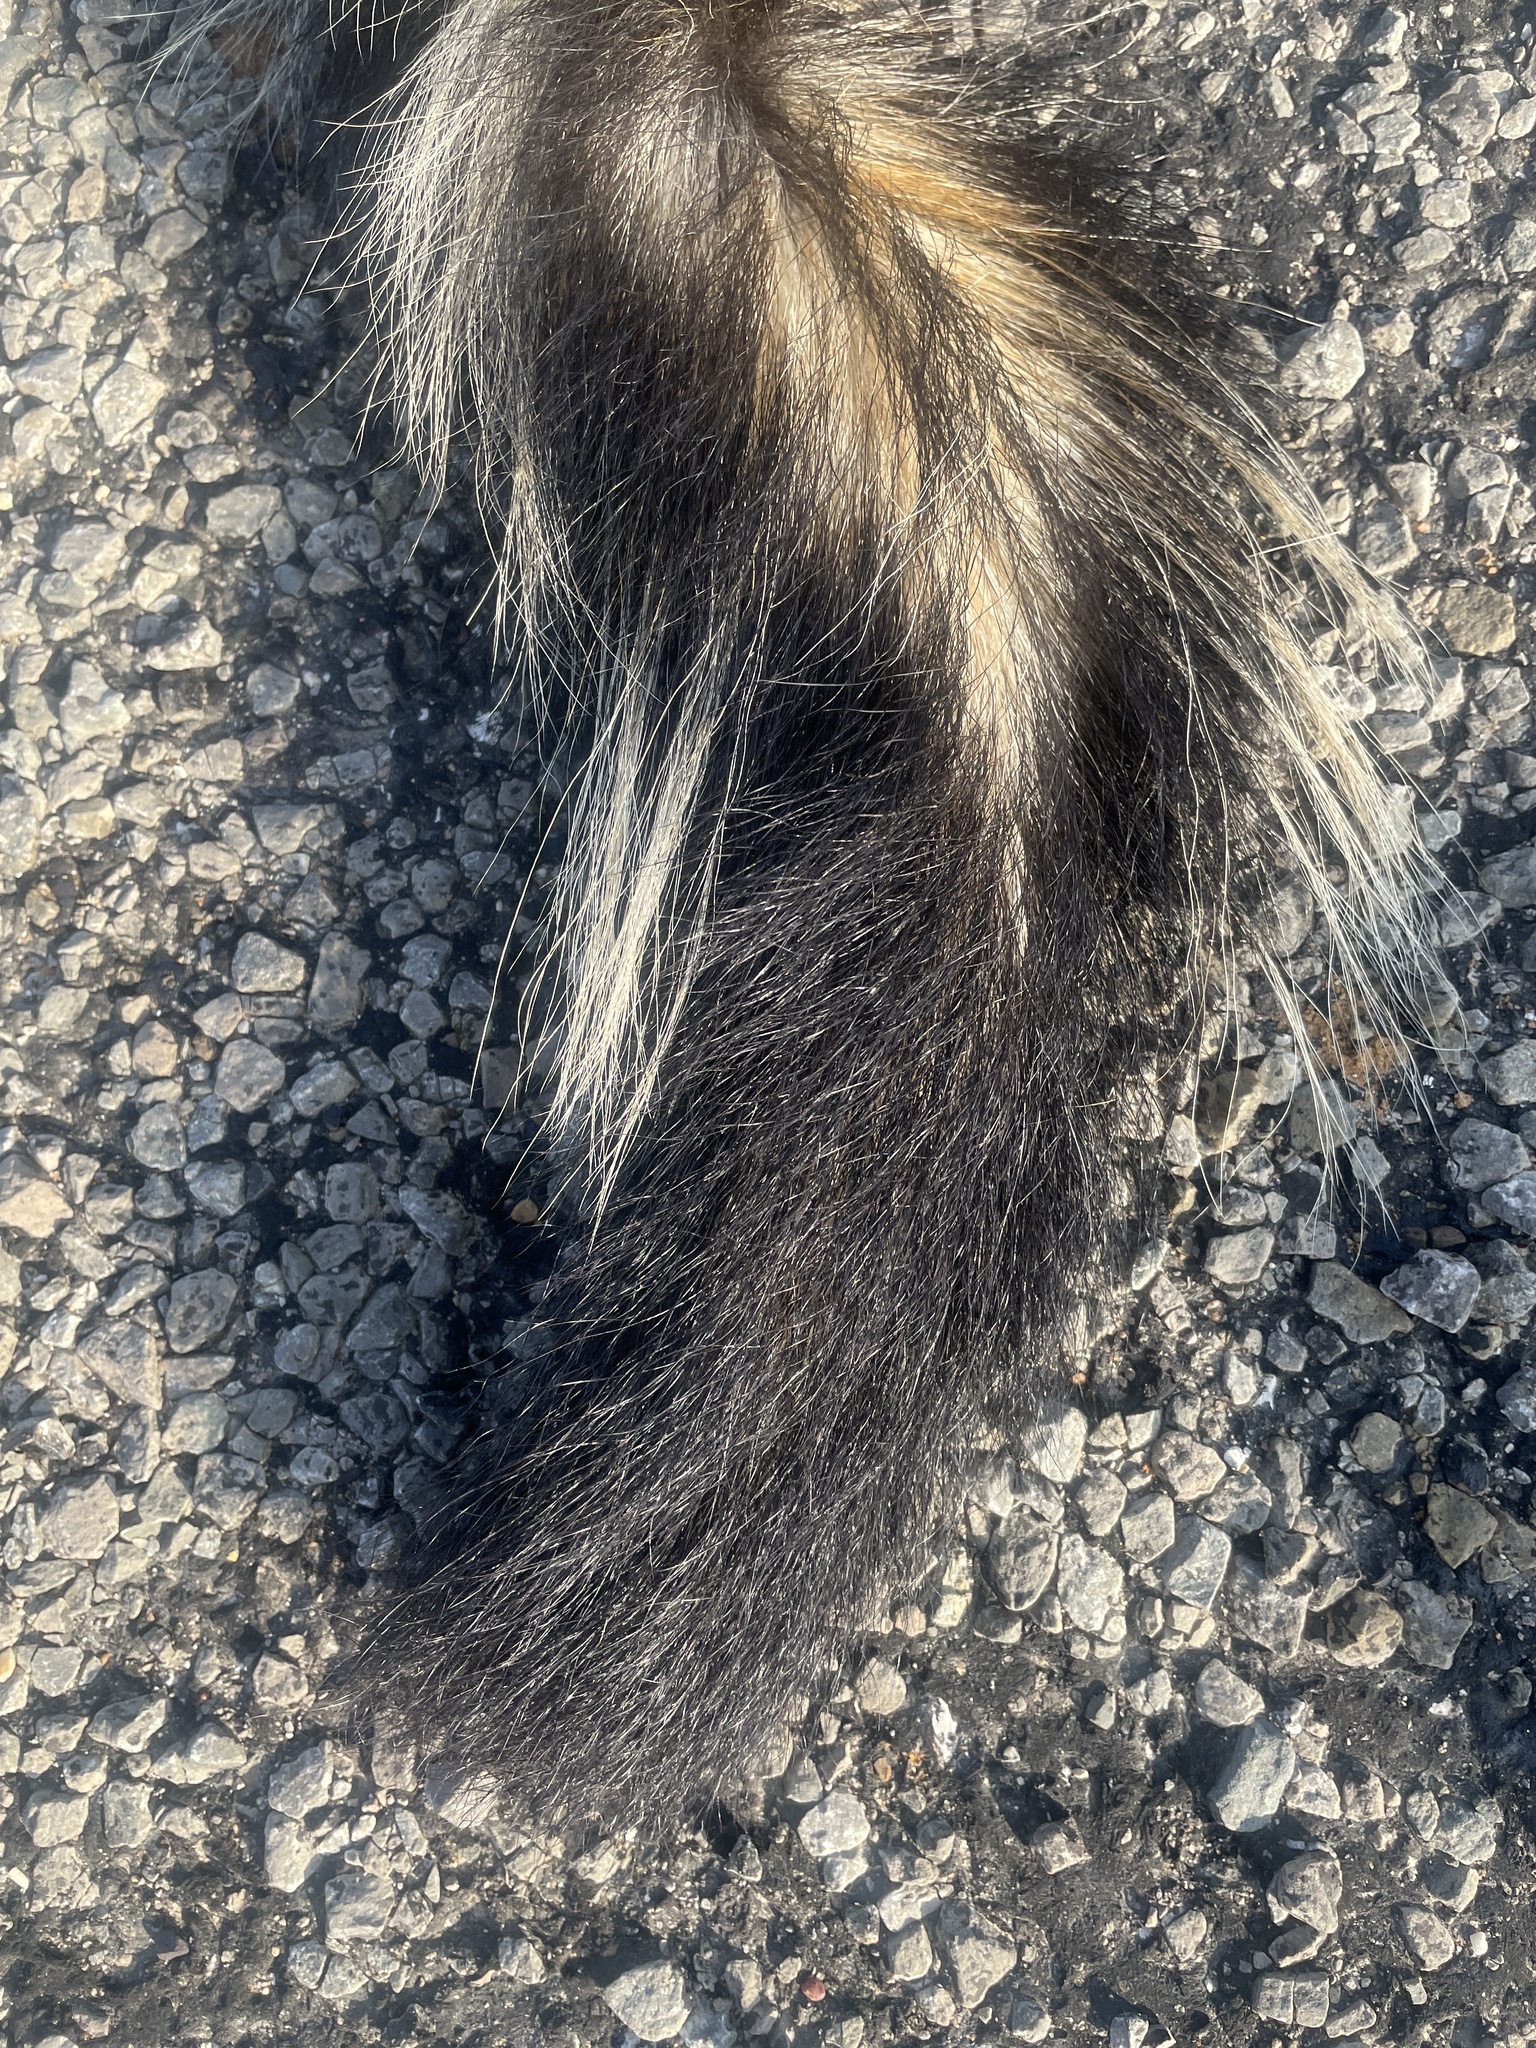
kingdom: Animalia
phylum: Chordata
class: Mammalia
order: Carnivora
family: Mephitidae
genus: Mephitis
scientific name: Mephitis mephitis
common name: Striped skunk
